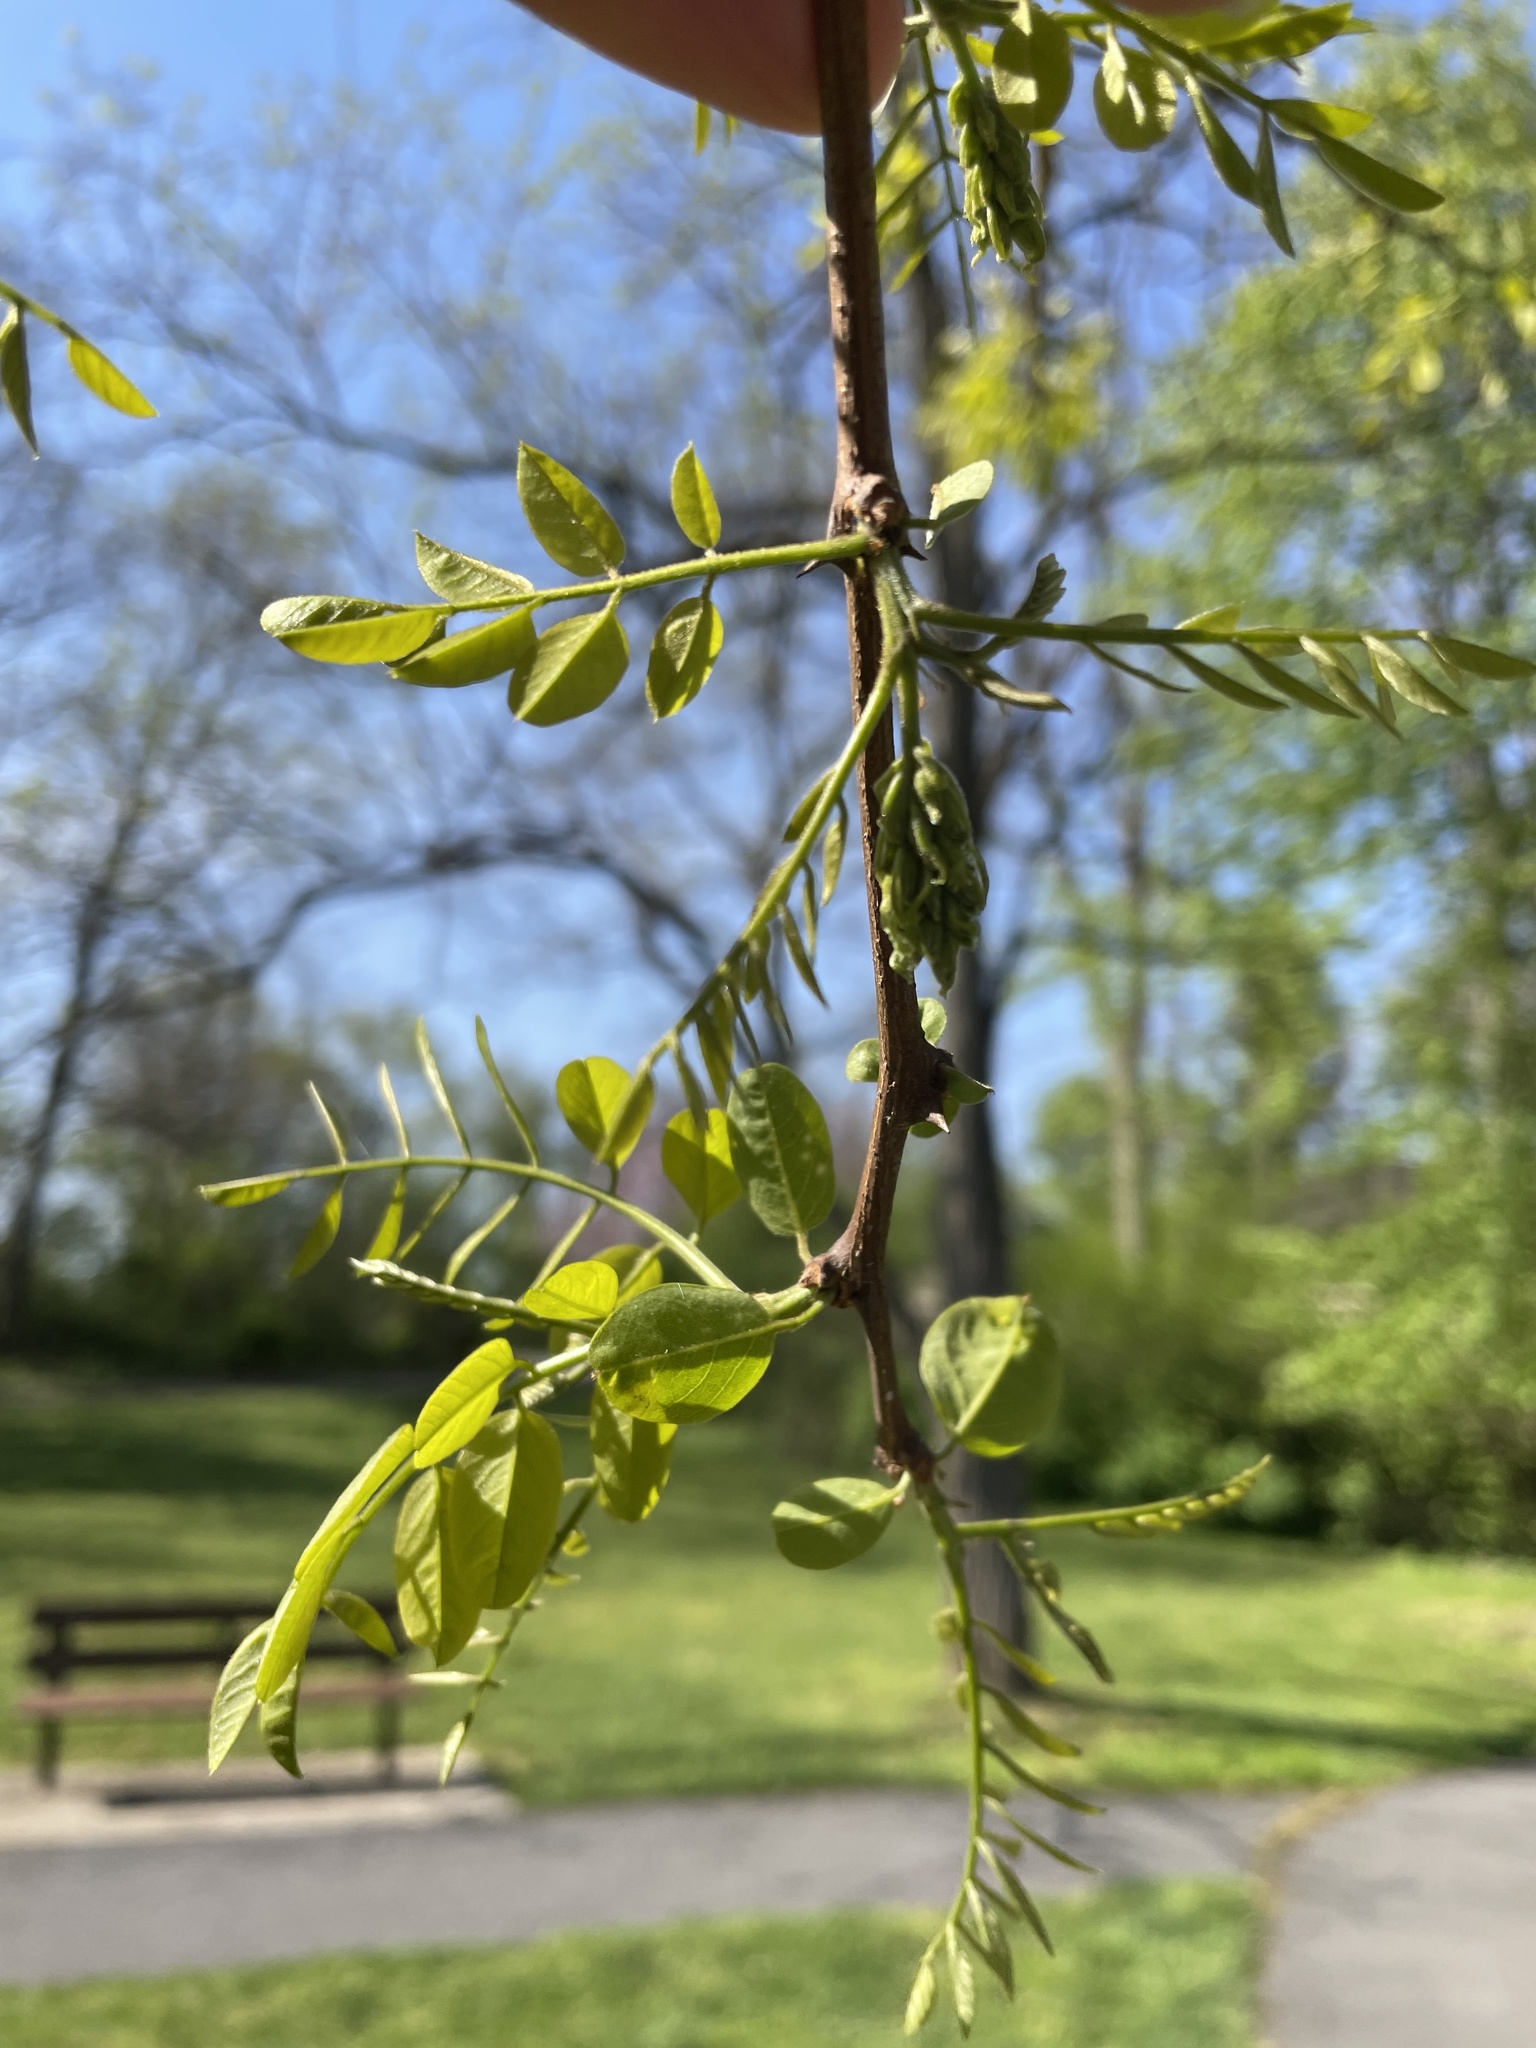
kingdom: Plantae
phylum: Tracheophyta
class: Magnoliopsida
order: Fabales
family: Fabaceae
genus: Robinia
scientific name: Robinia pseudoacacia
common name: Black locust
